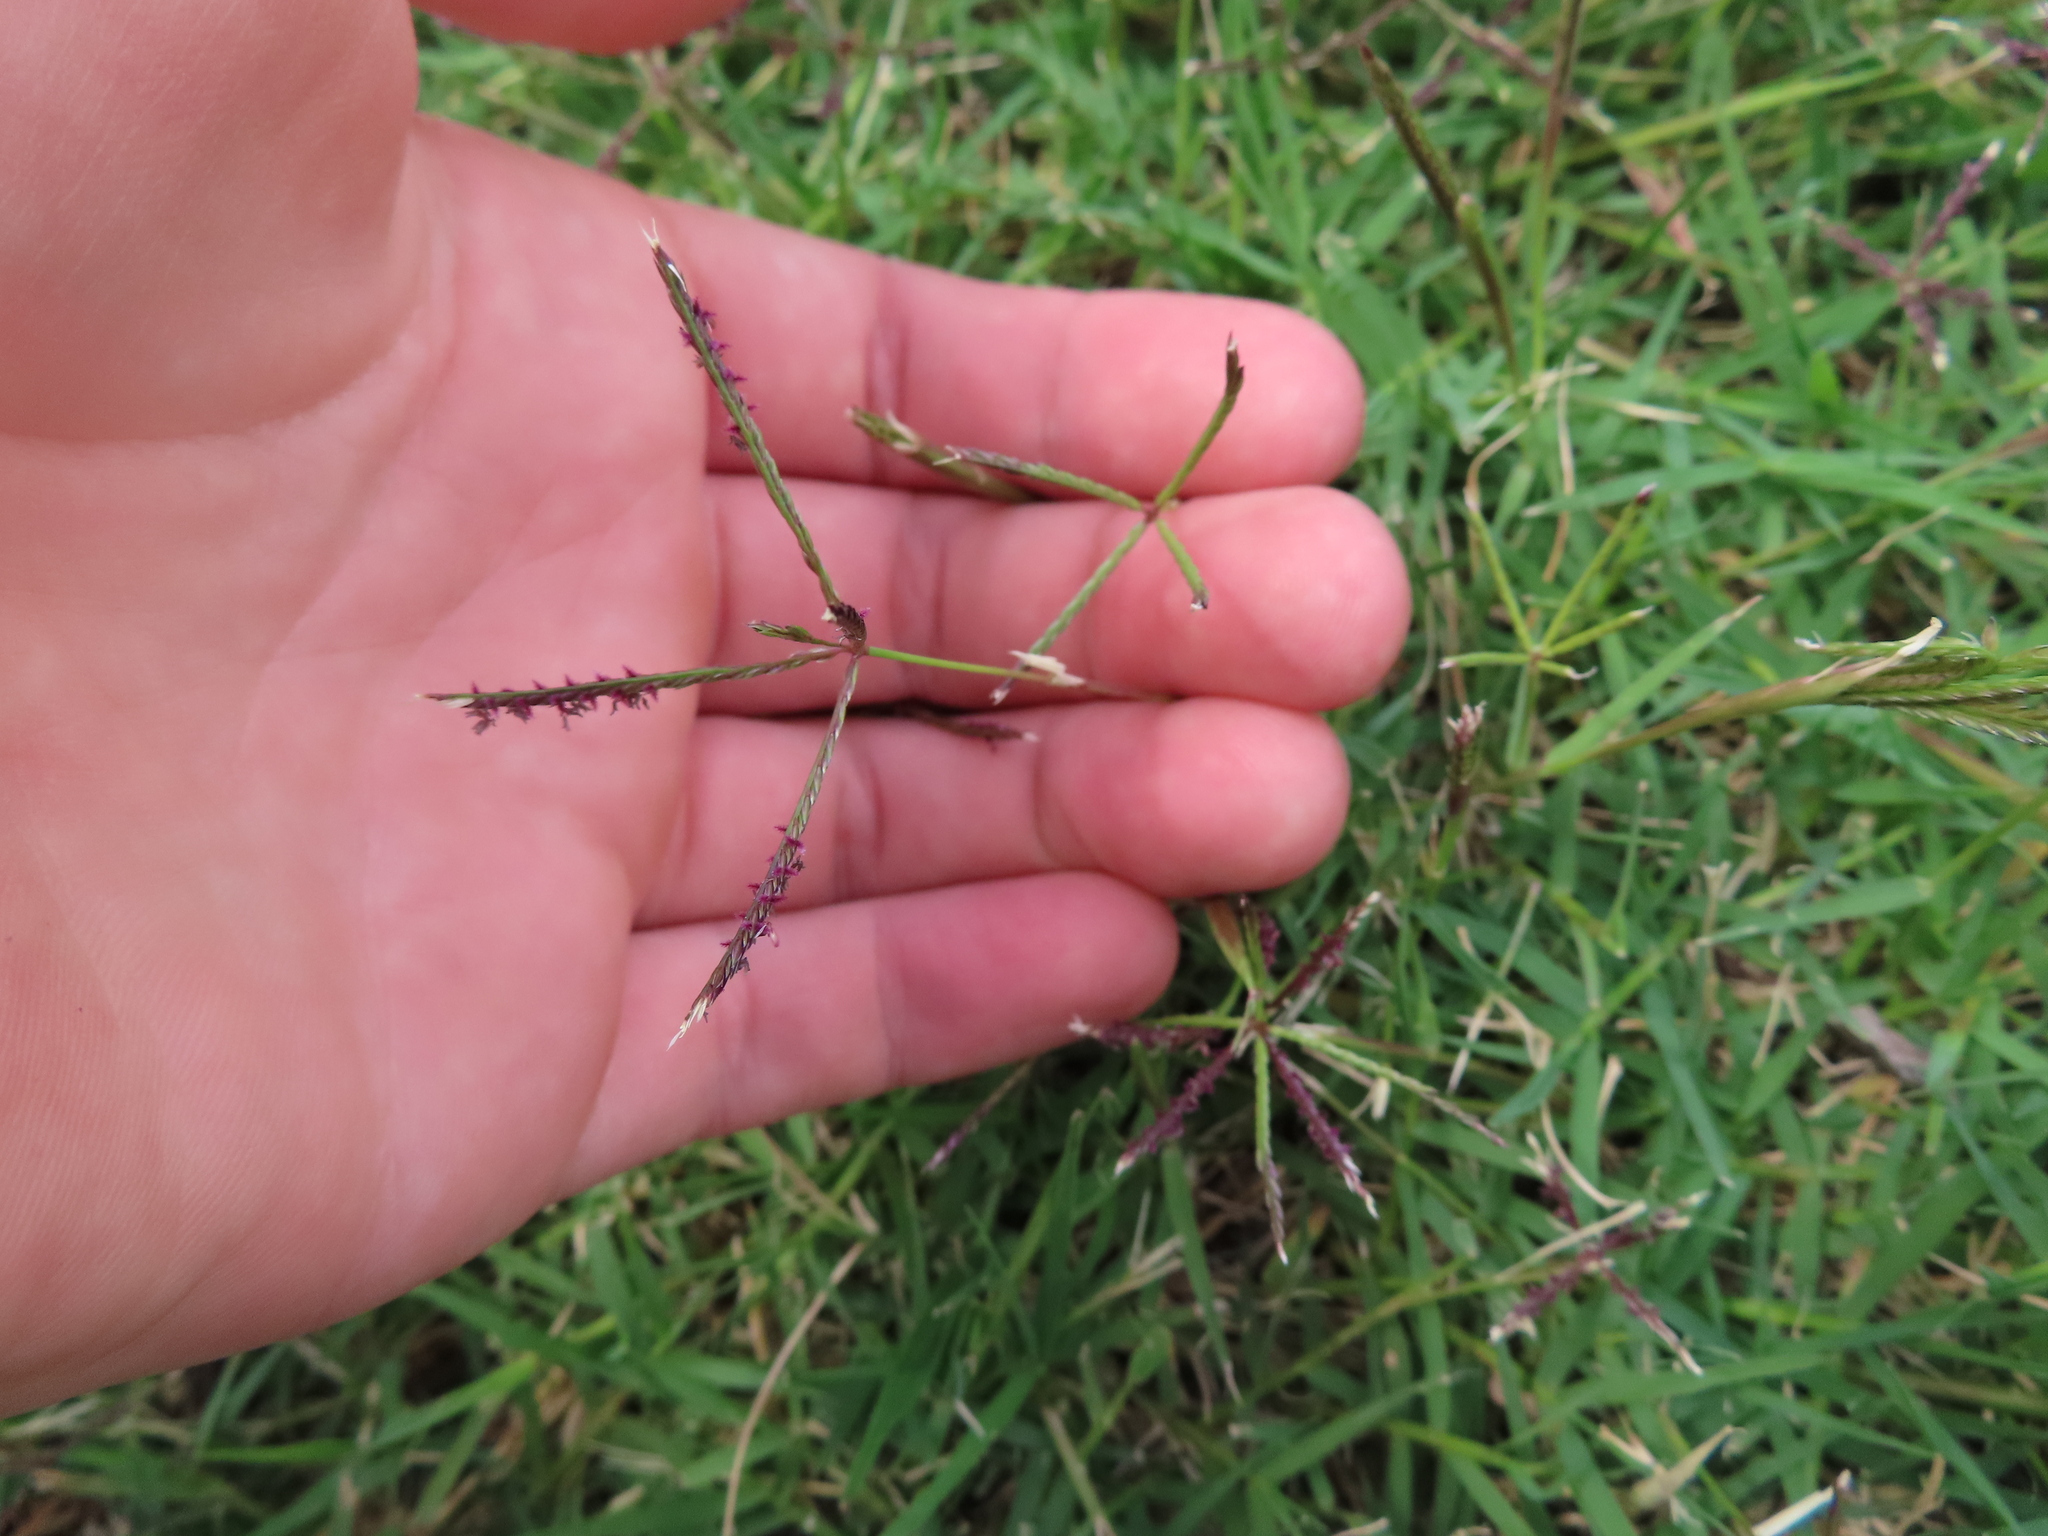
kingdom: Plantae
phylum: Tracheophyta
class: Liliopsida
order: Poales
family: Poaceae
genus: Cynodon
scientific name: Cynodon dactylon
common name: Bermuda grass
